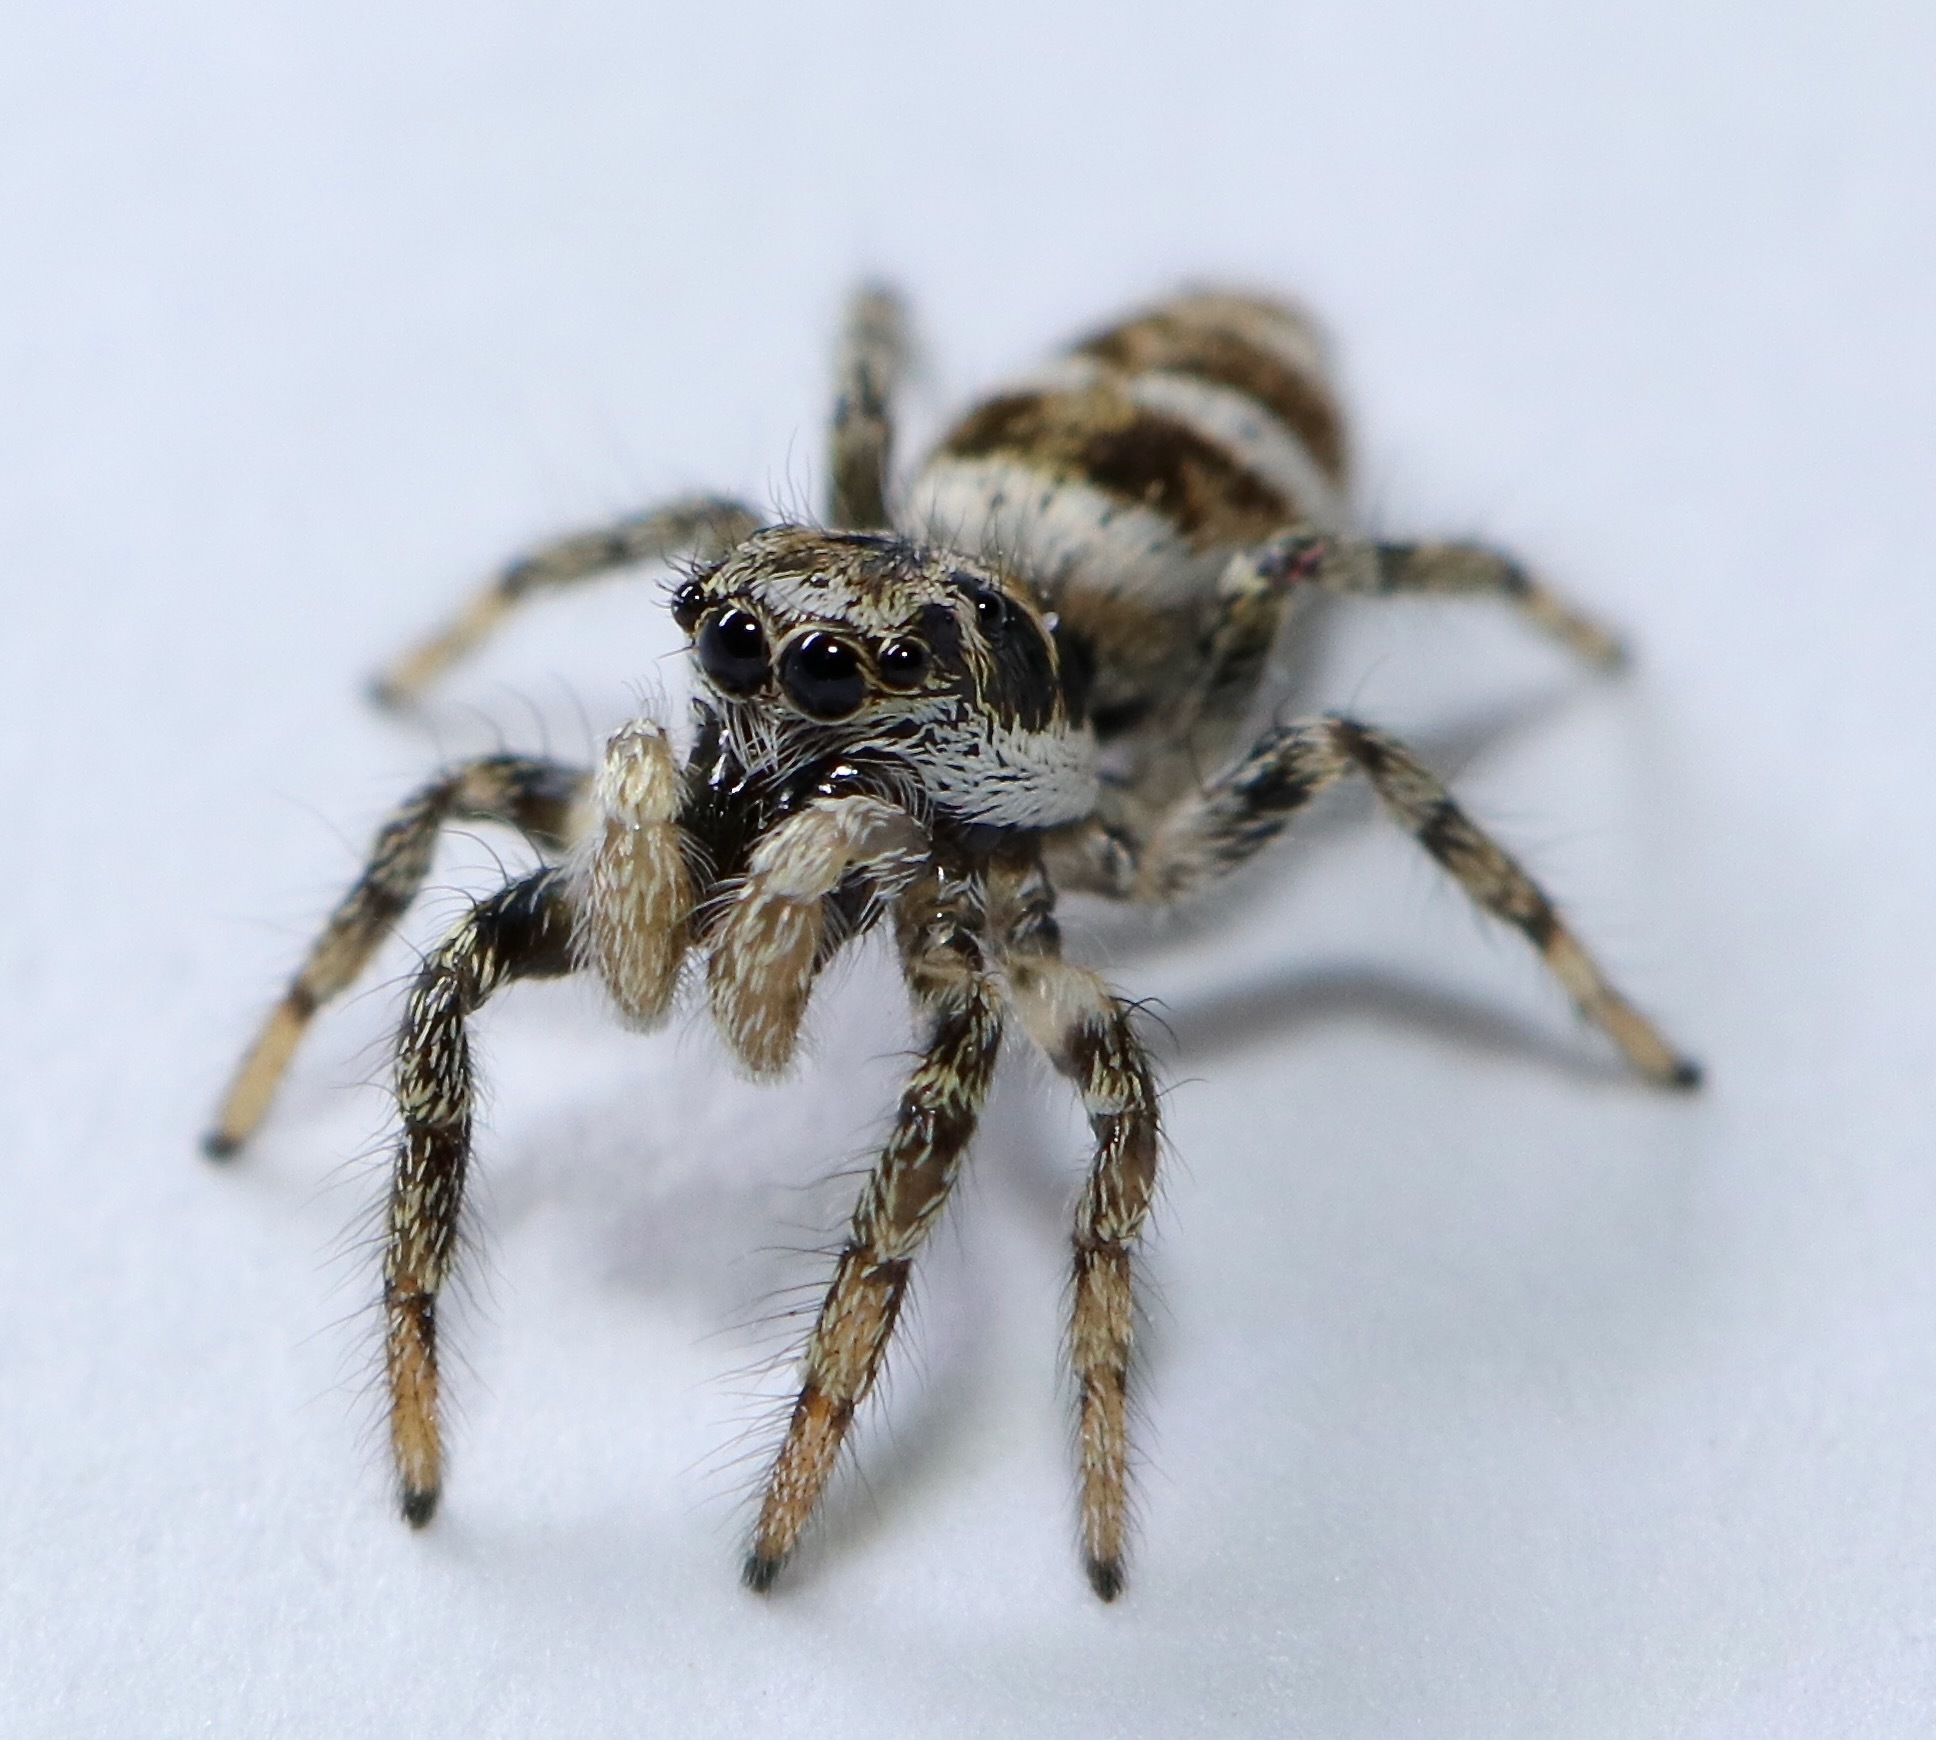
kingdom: Animalia
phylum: Arthropoda
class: Arachnida
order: Araneae
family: Salticidae
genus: Salticus
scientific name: Salticus scenicus
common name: Zebra jumper
